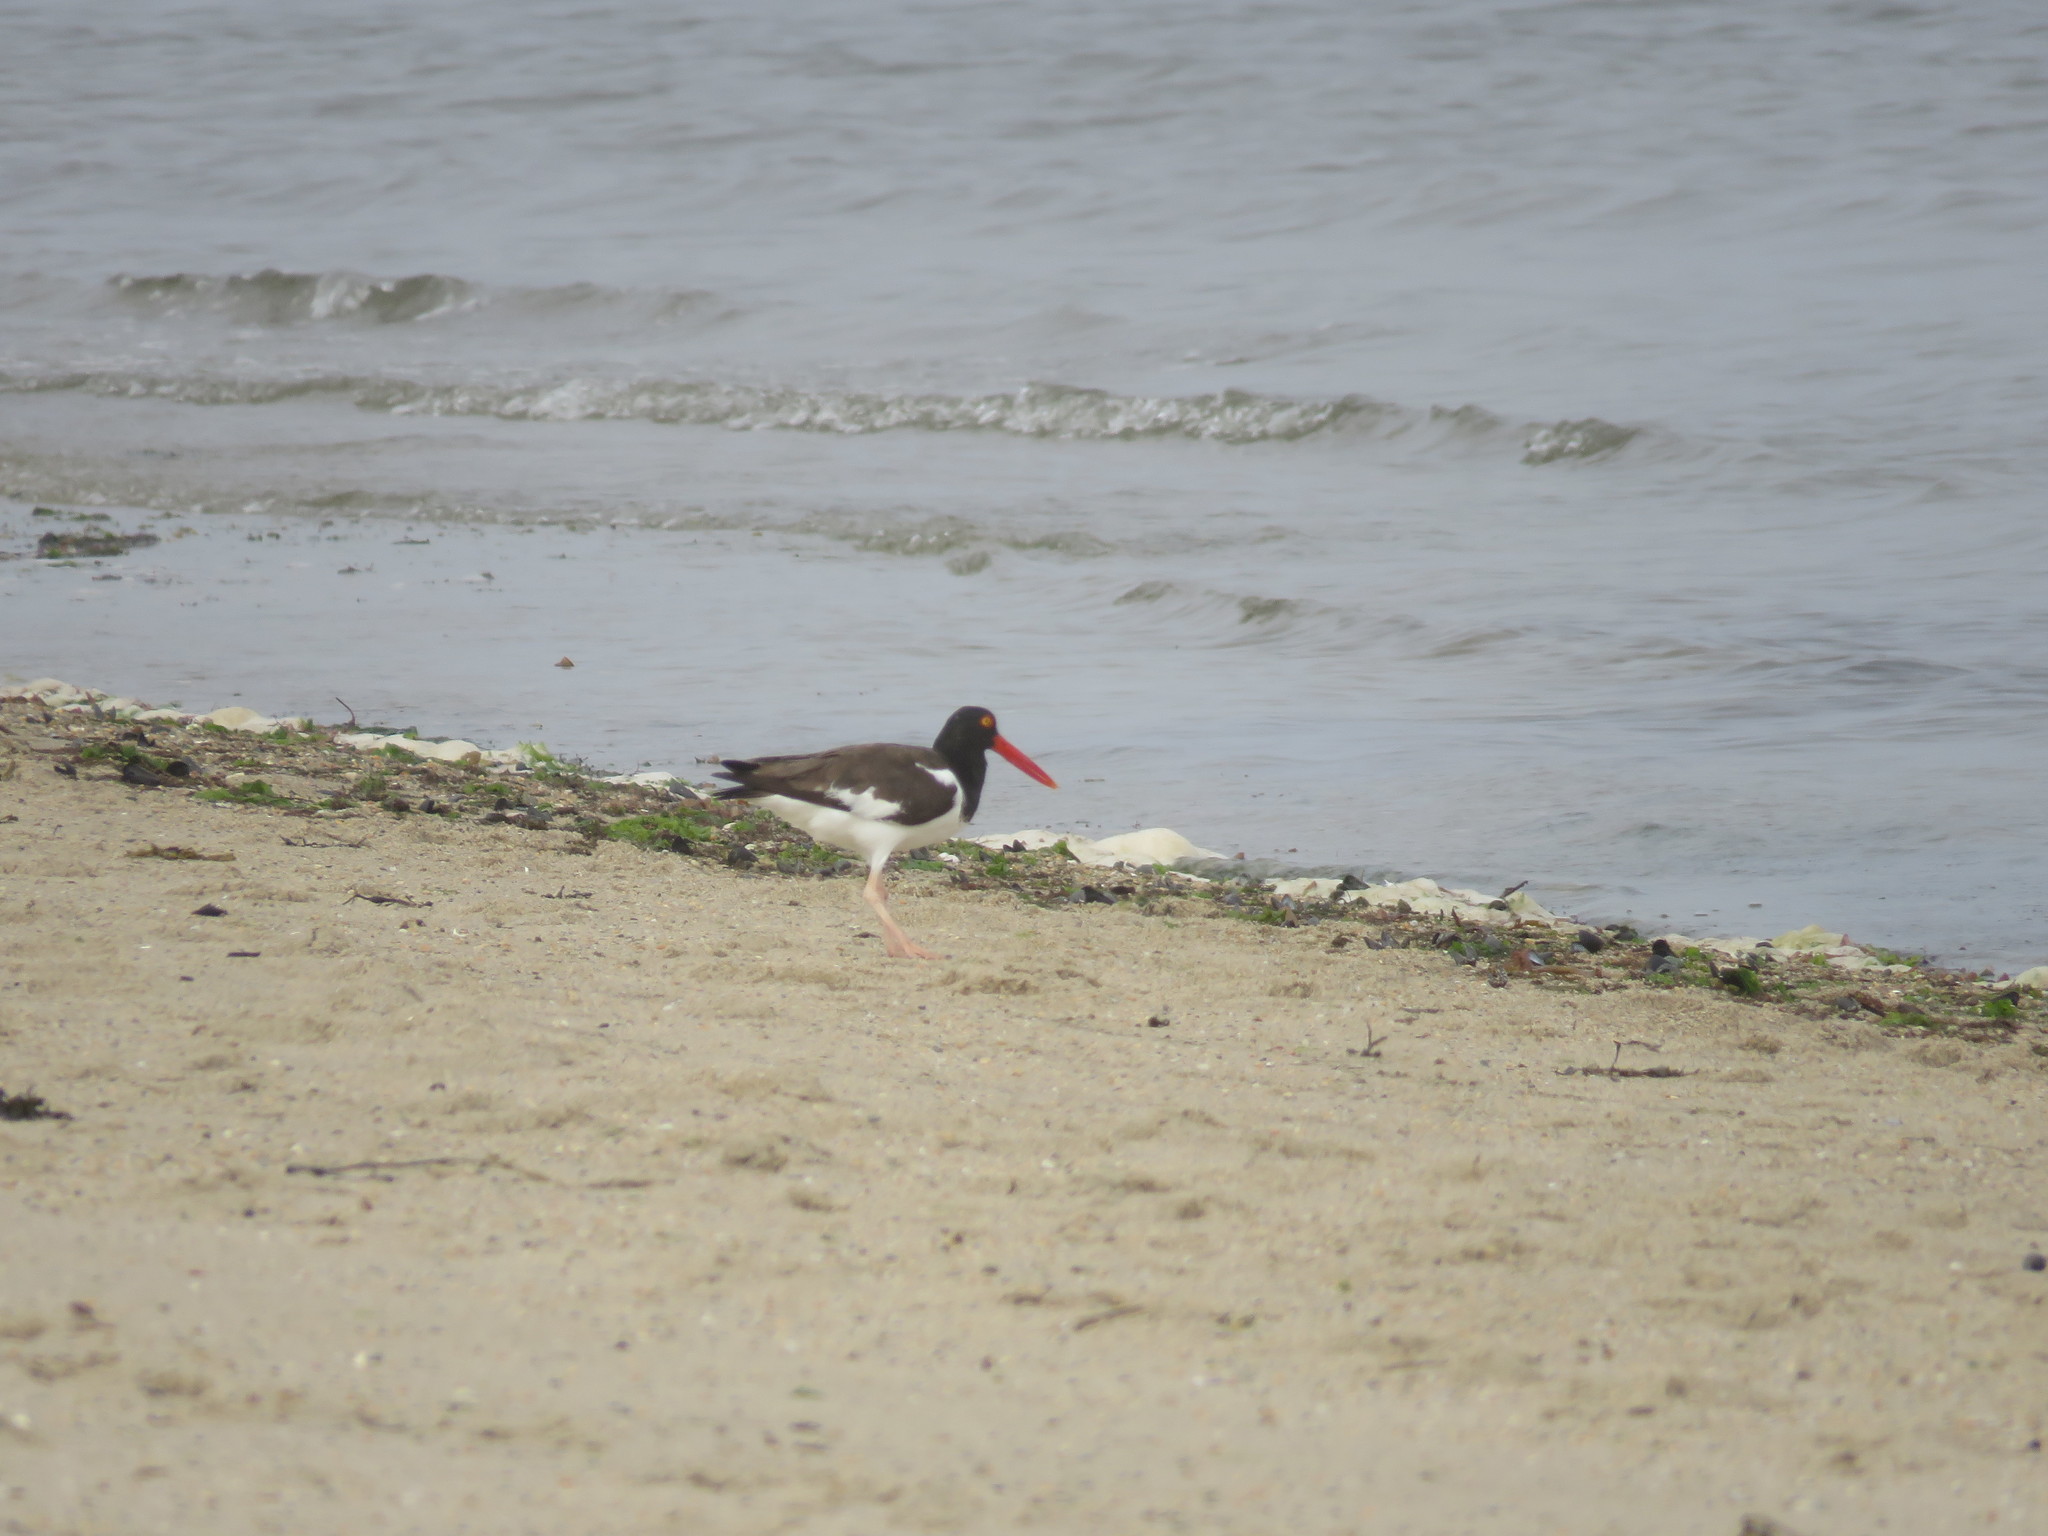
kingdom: Animalia
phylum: Chordata
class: Aves
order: Charadriiformes
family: Haematopodidae
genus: Haematopus
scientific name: Haematopus palliatus
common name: American oystercatcher
